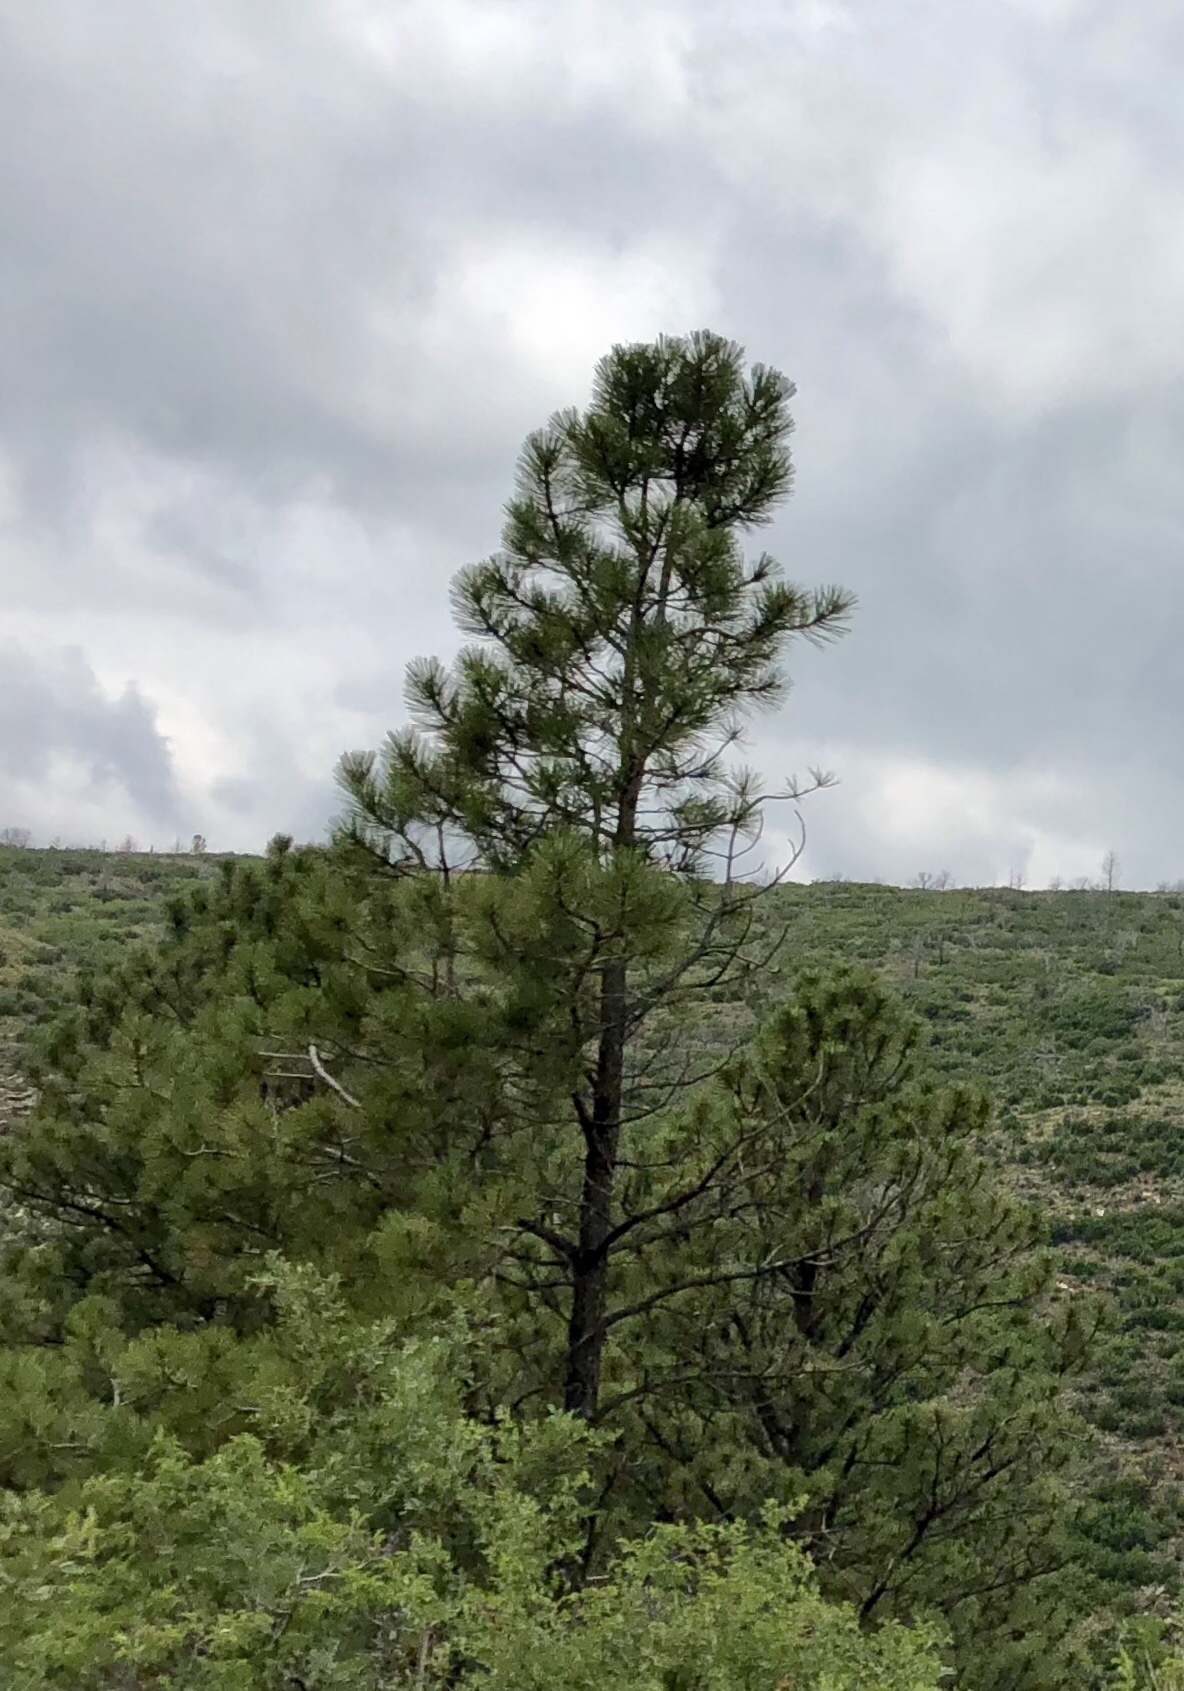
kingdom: Plantae
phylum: Tracheophyta
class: Pinopsida
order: Pinales
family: Pinaceae
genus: Pinus
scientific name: Pinus ponderosa
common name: Western yellow-pine
